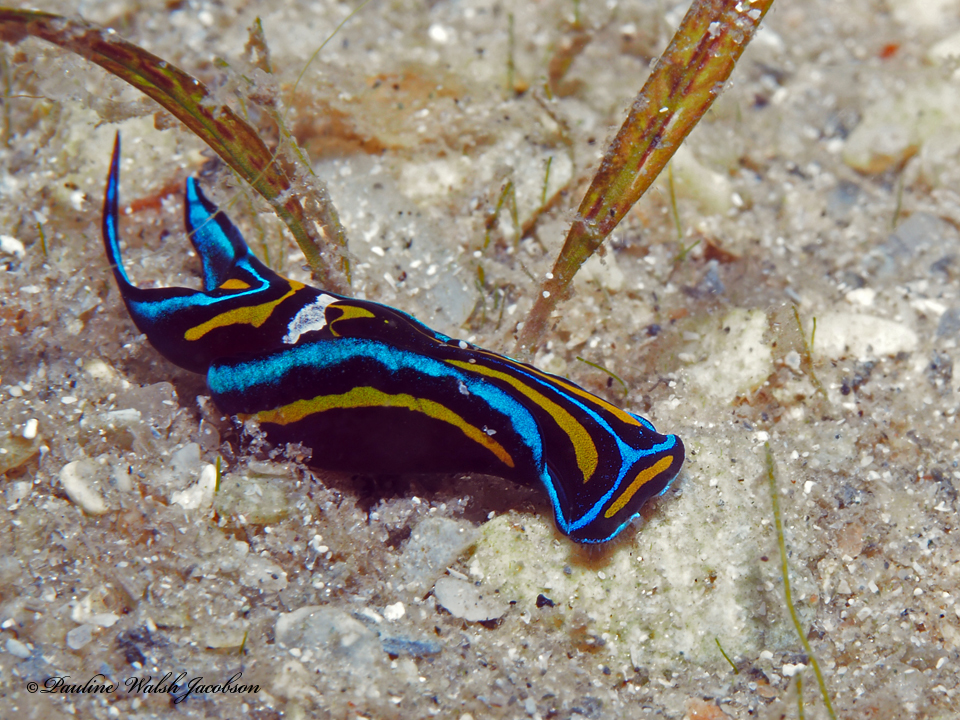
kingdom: Animalia
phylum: Mollusca
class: Gastropoda
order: Cephalaspidea
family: Aglajidae
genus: Chelidonura
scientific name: Chelidonura hirundinina
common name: Leech headshield slug
